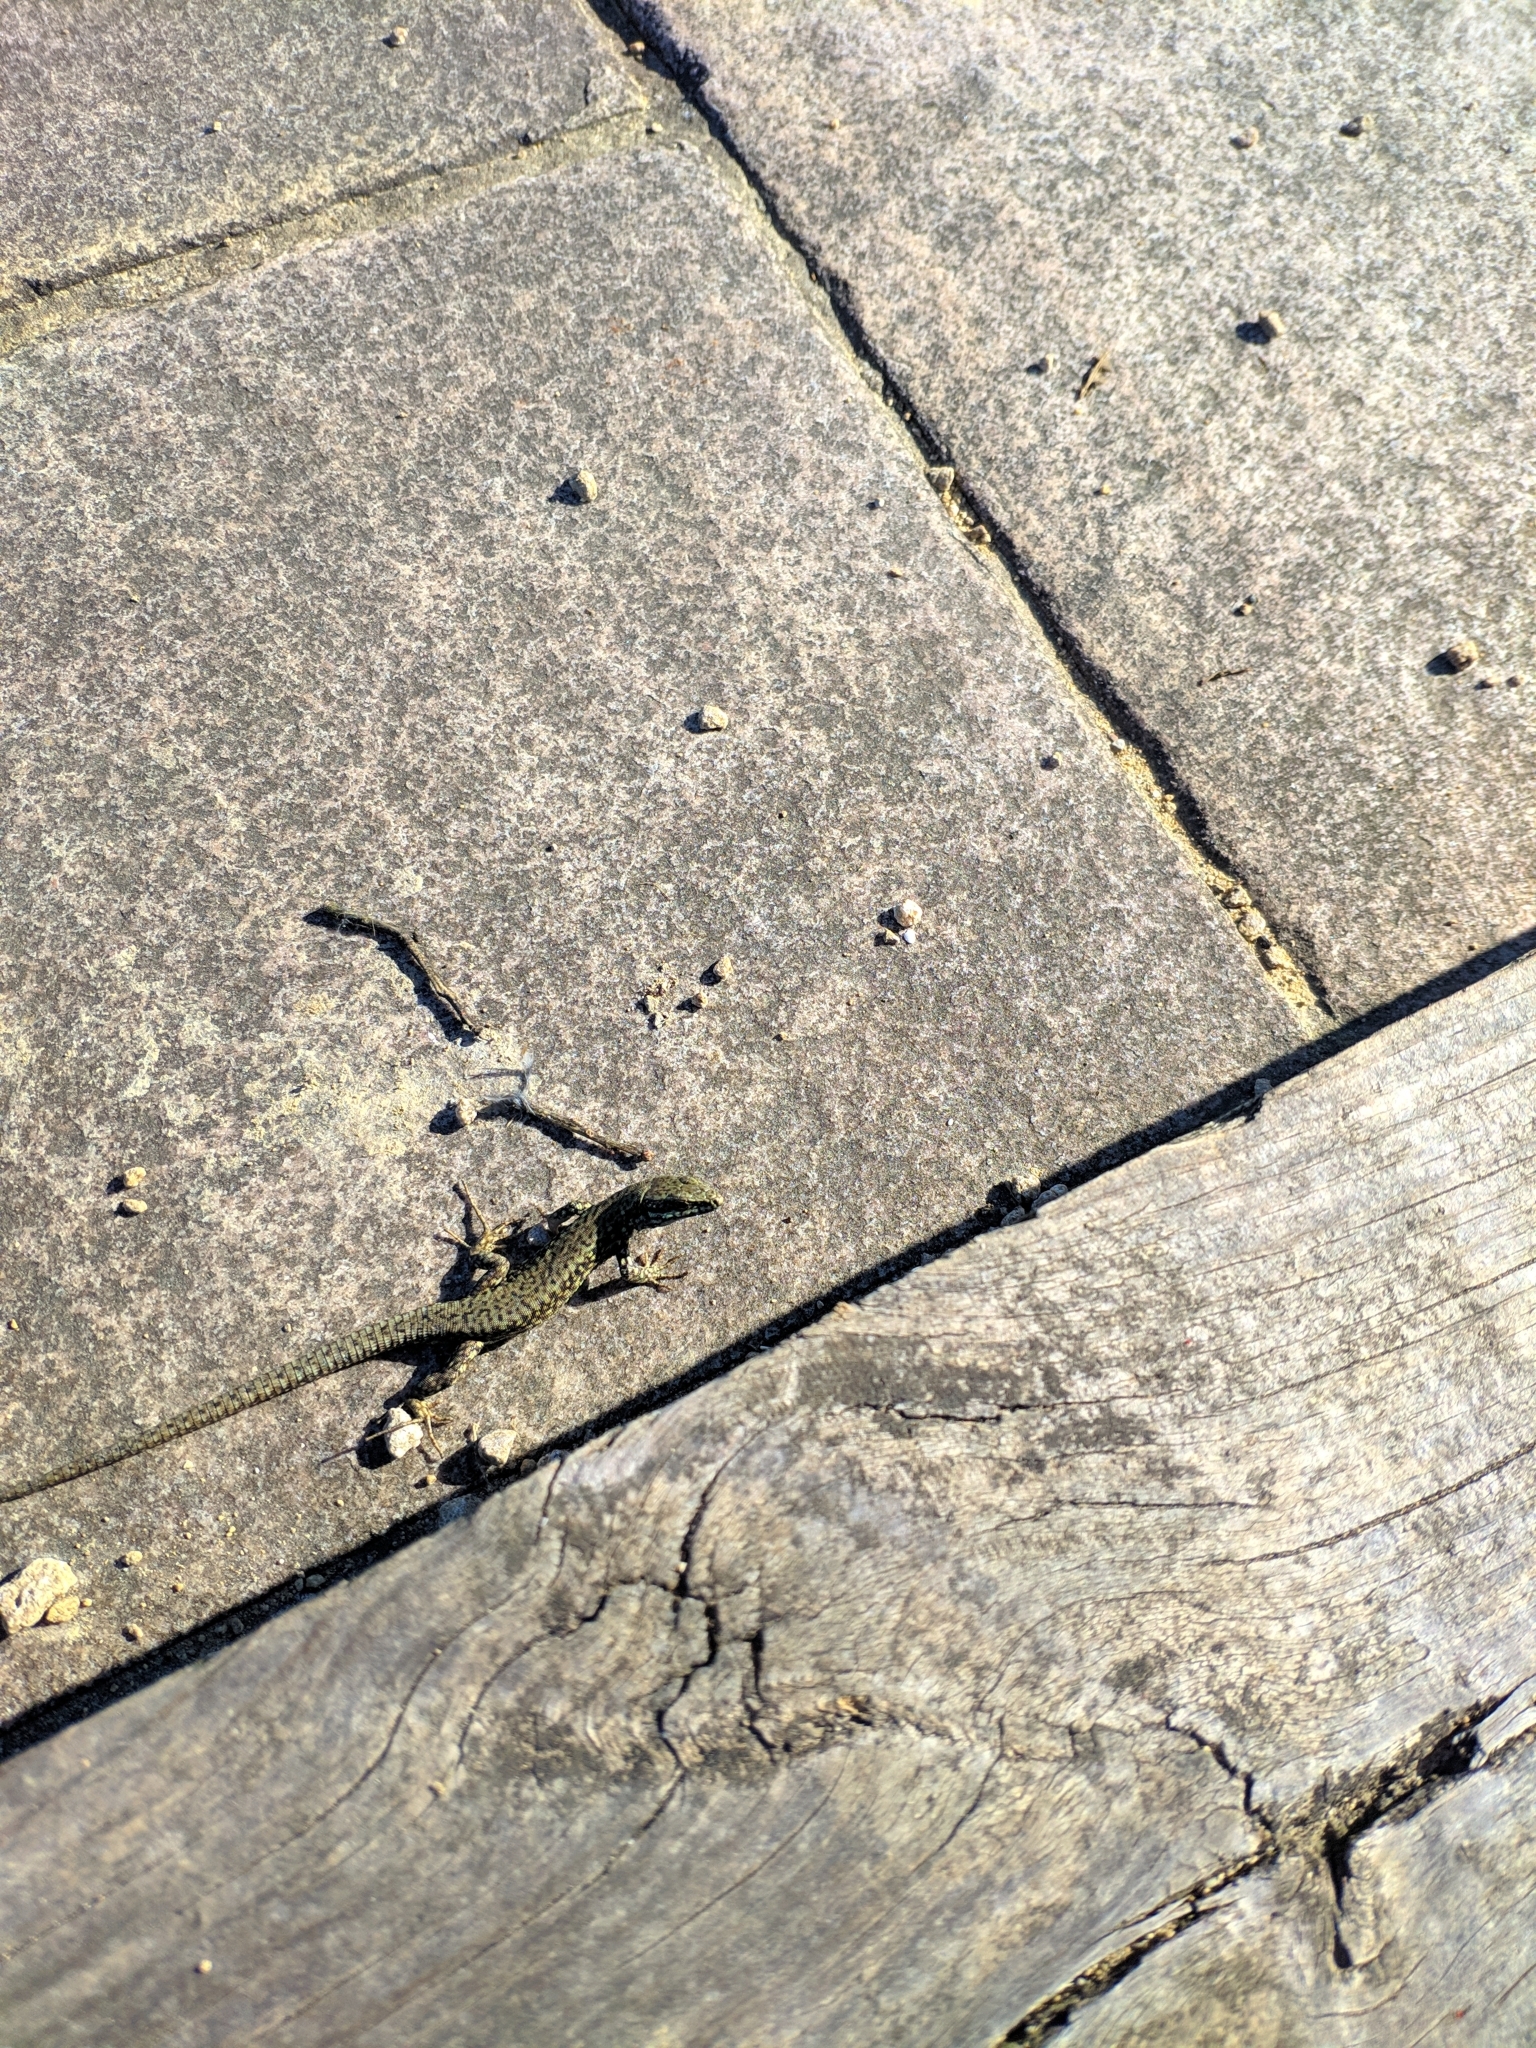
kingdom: Animalia
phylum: Chordata
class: Squamata
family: Lacertidae
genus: Podarcis
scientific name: Podarcis muralis
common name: Common wall lizard
